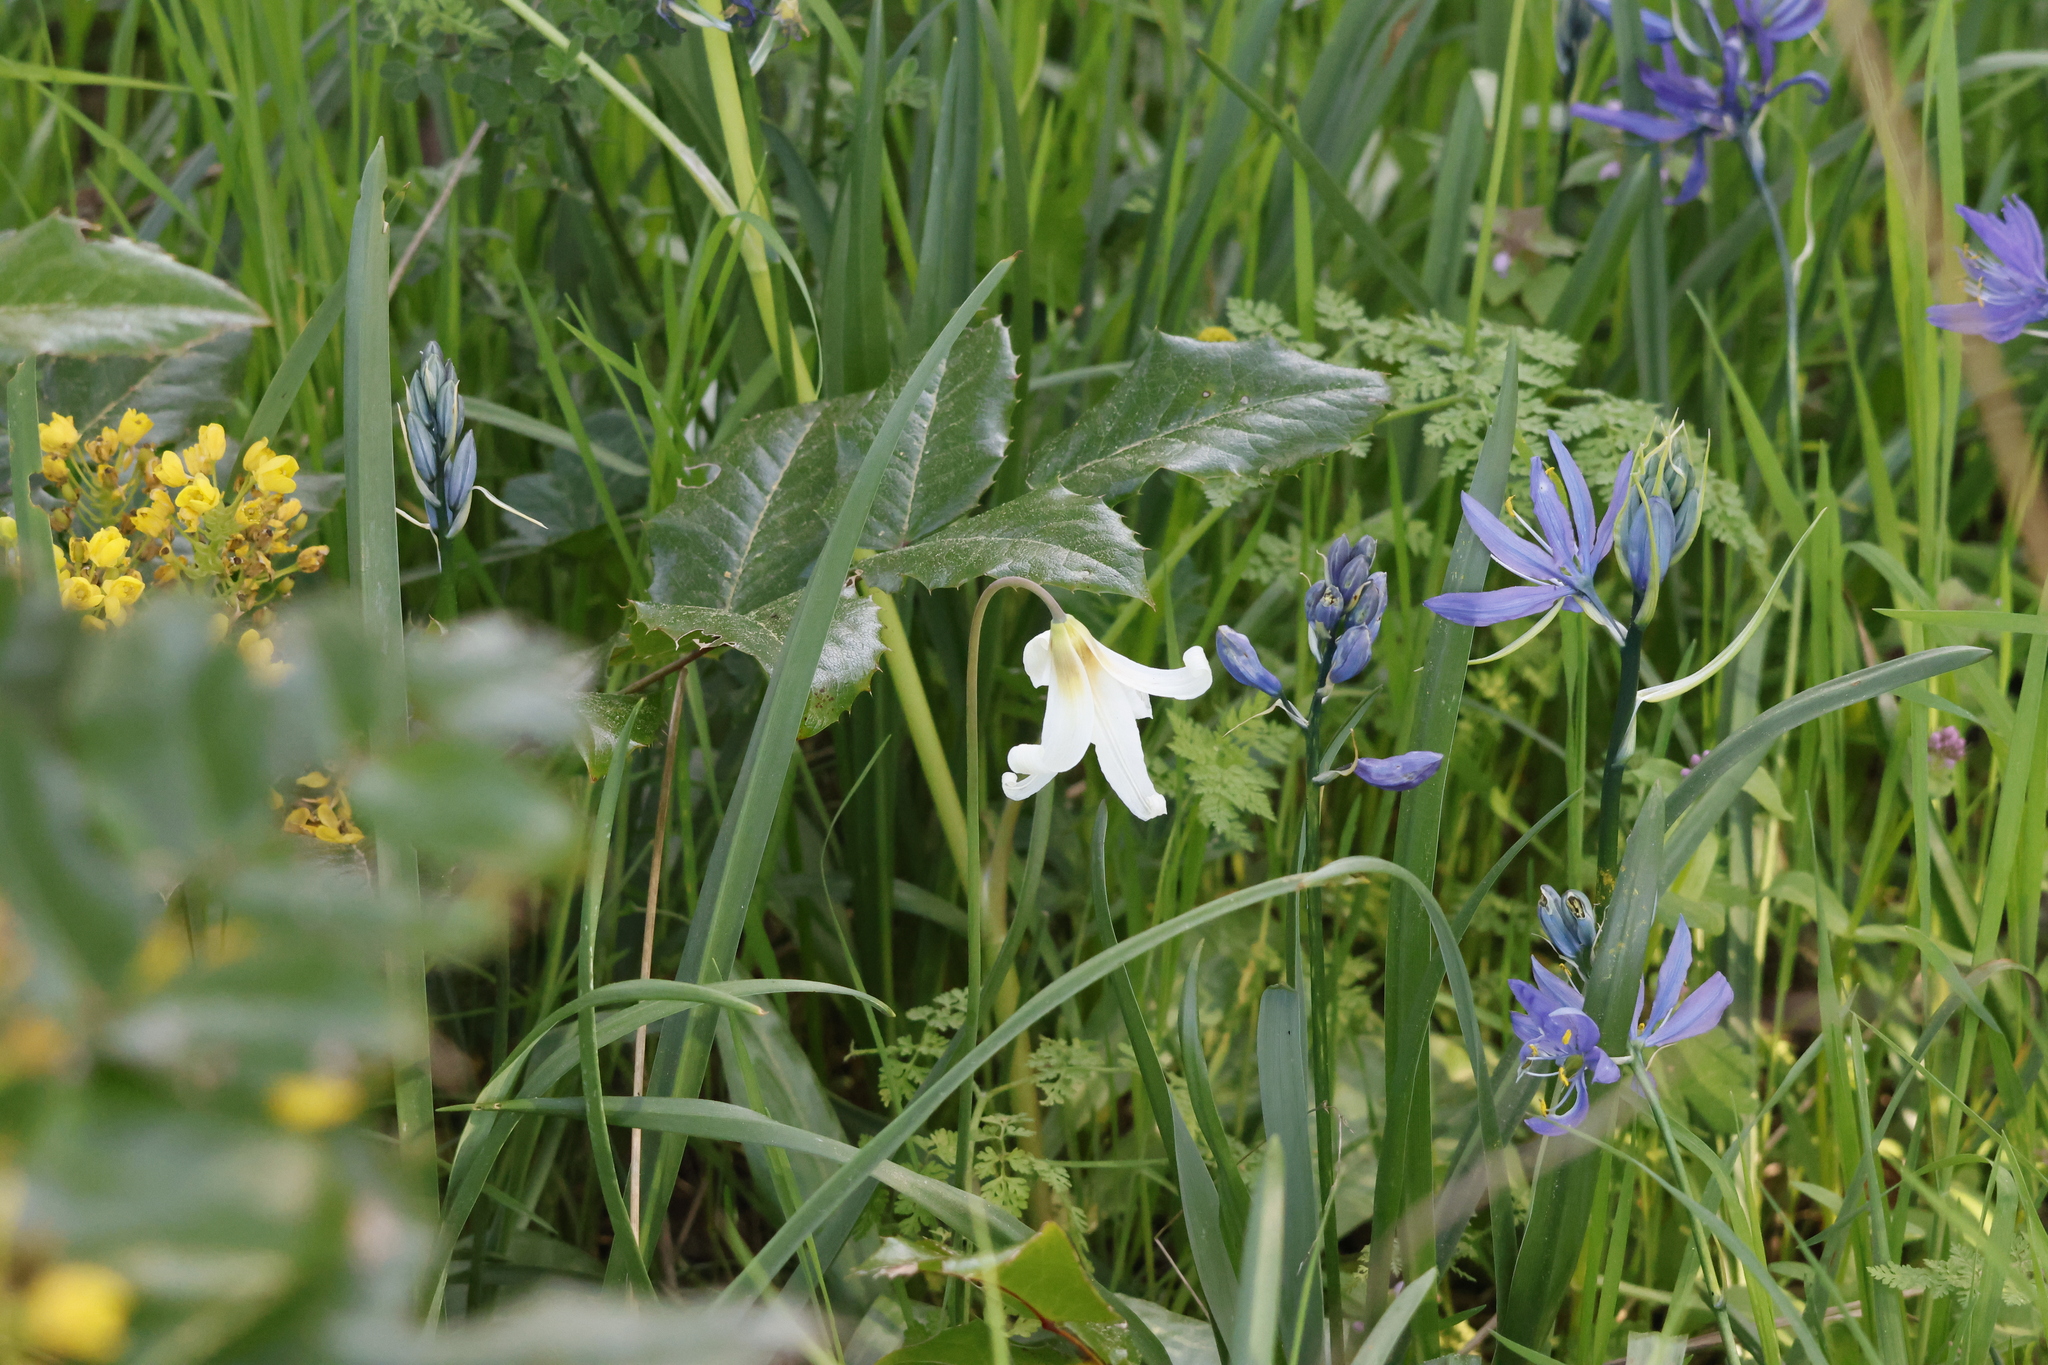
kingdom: Plantae
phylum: Tracheophyta
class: Liliopsida
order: Liliales
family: Liliaceae
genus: Erythronium
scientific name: Erythronium oregonum
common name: Giant adder's-tongue
